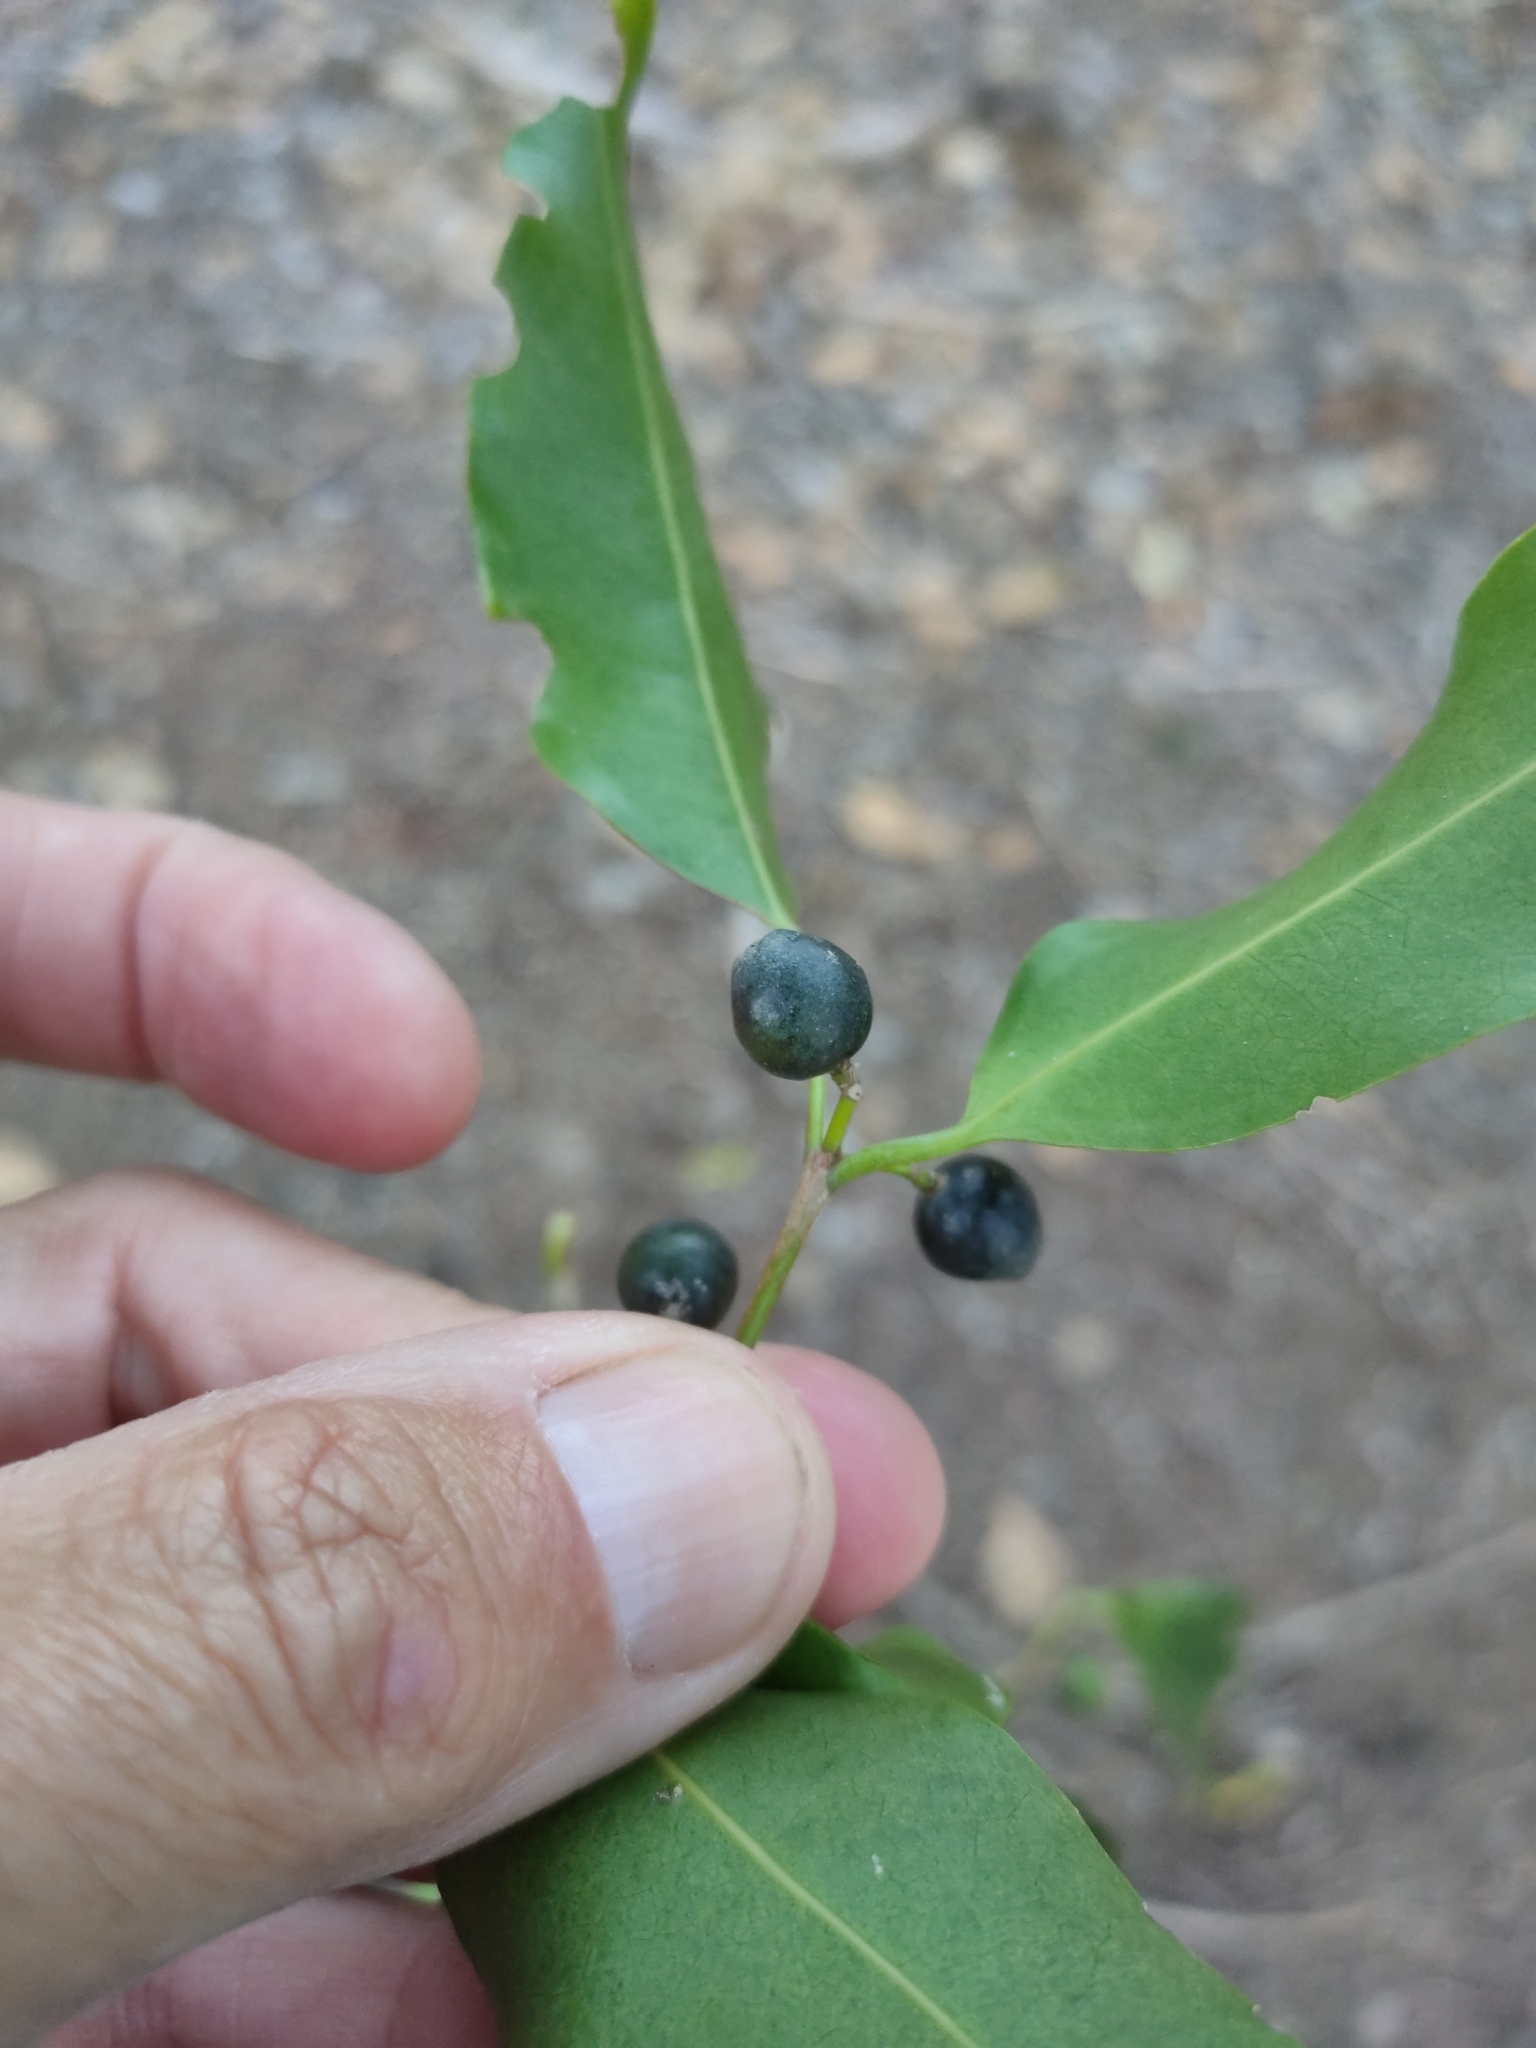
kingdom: Plantae
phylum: Tracheophyta
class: Magnoliopsida
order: Rosales
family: Cannabaceae
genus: Celtis
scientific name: Celtis paniculata
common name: Silky celtis
